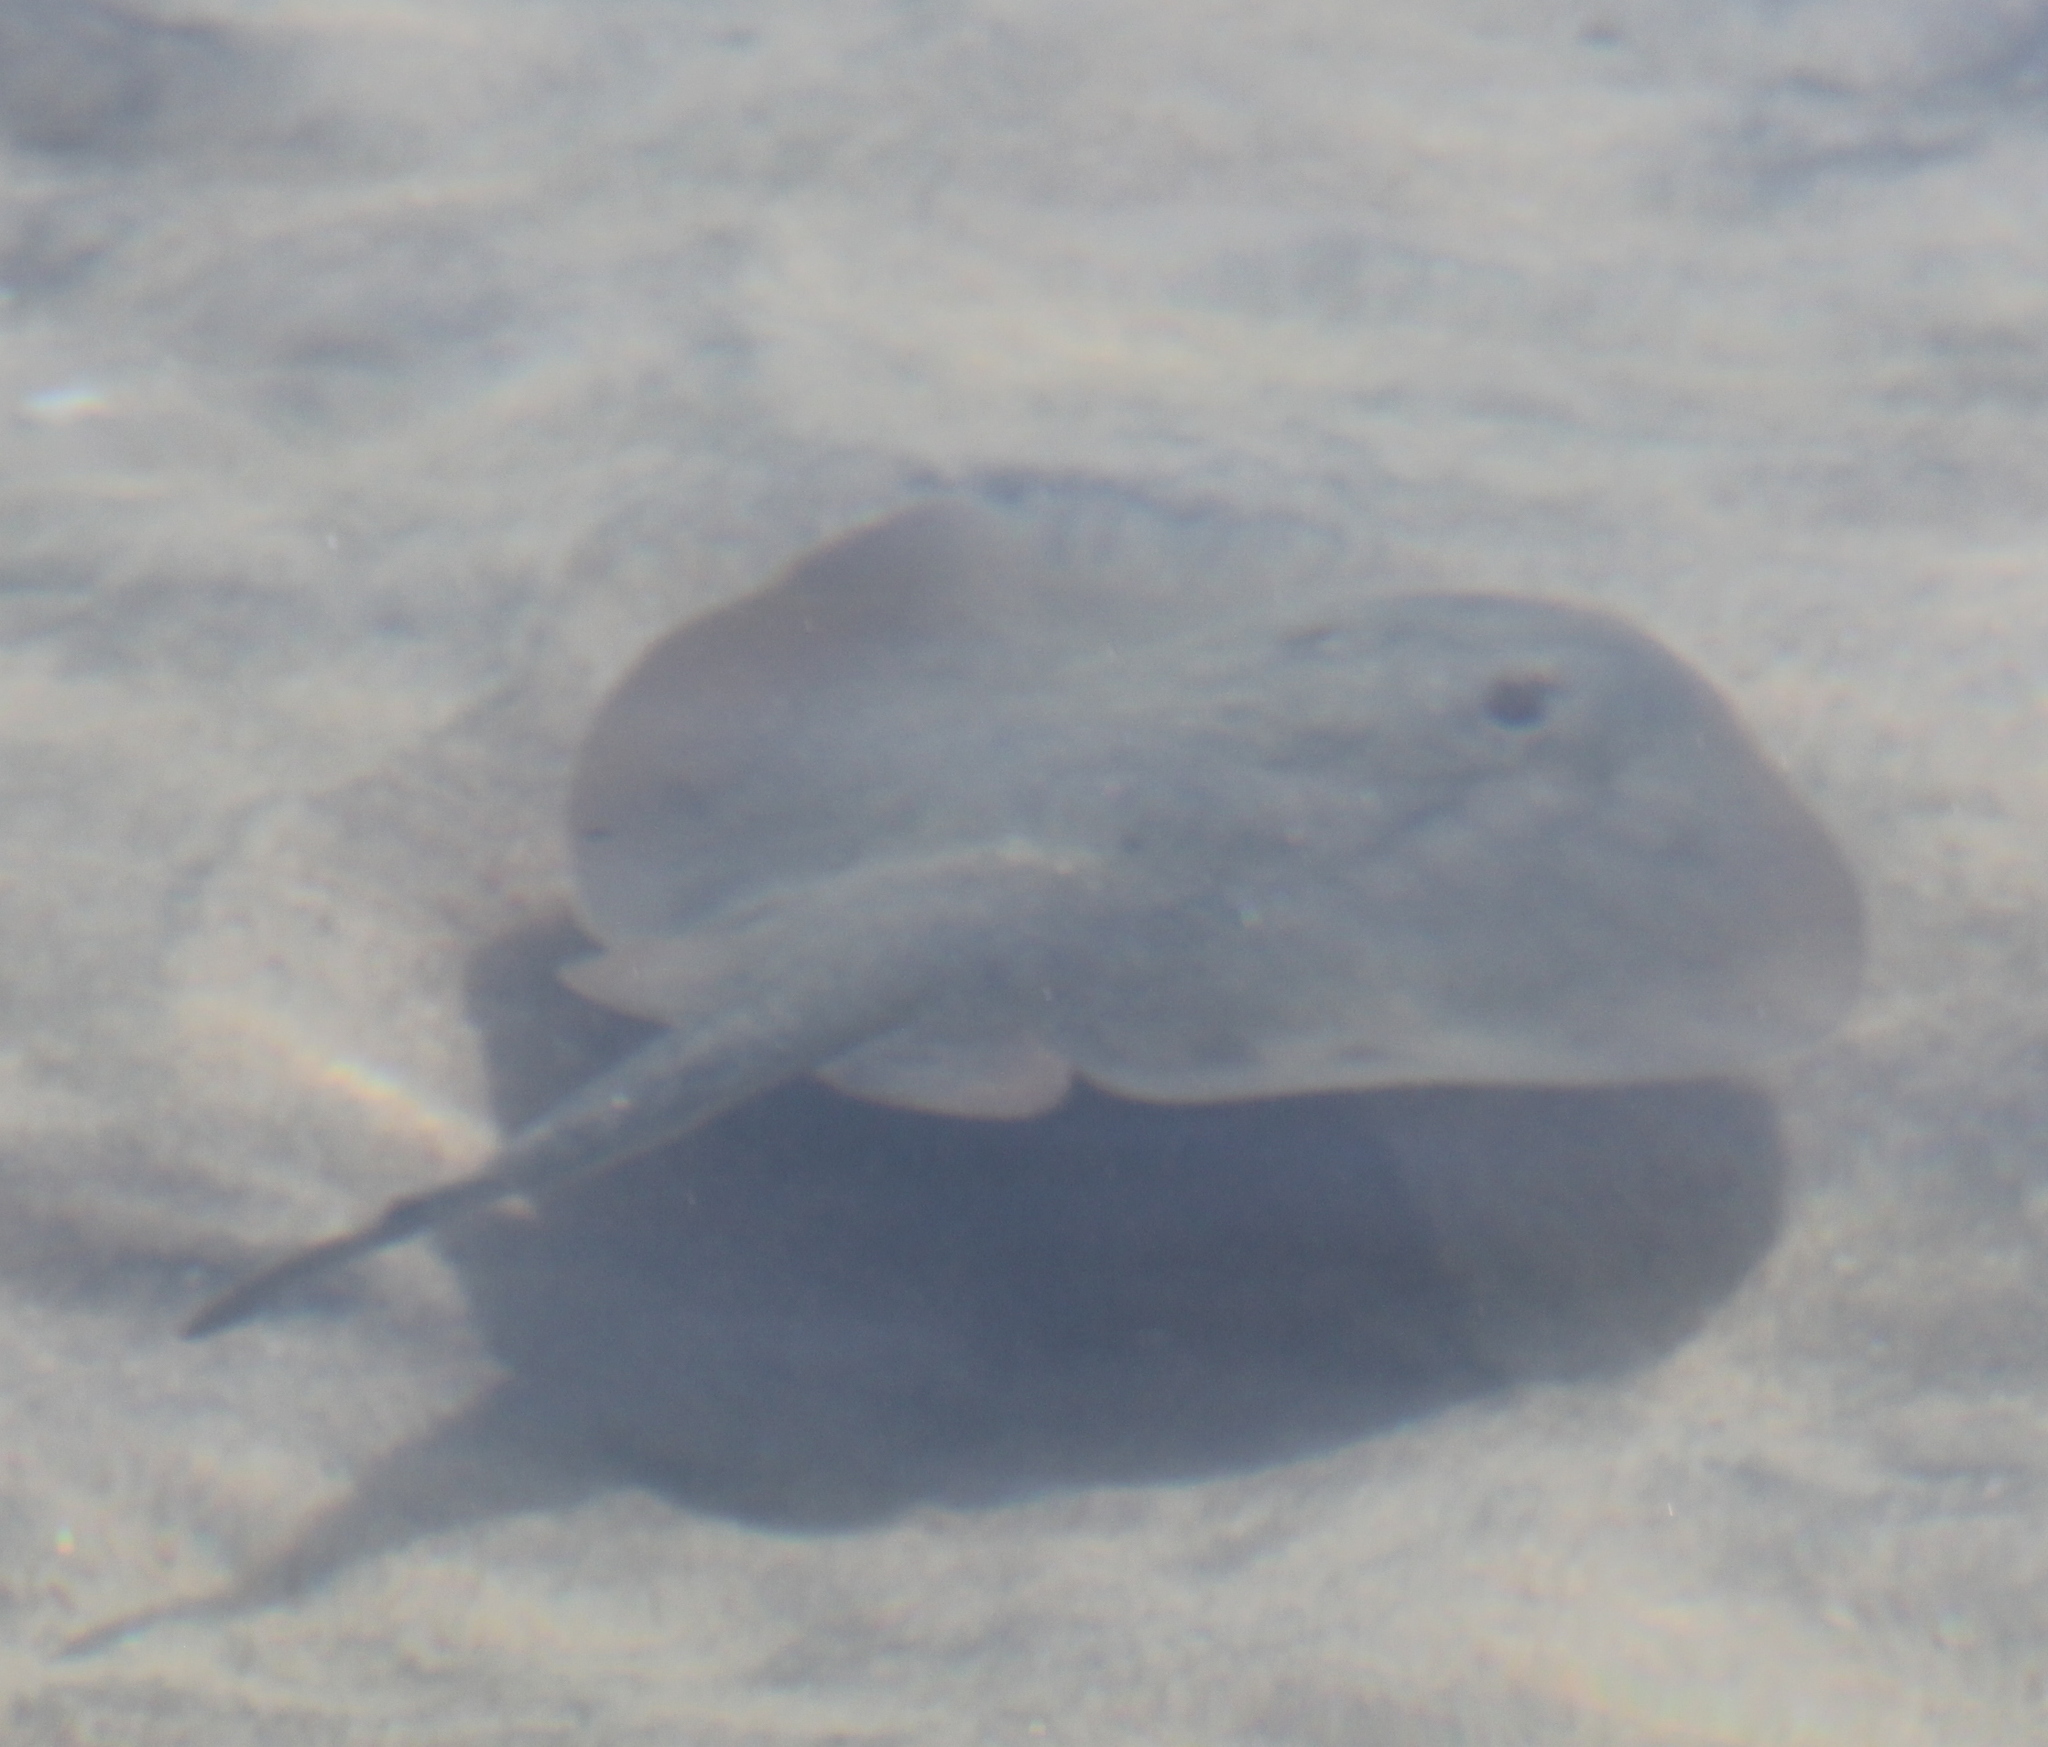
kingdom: Animalia
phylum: Chordata
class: Elasmobranchii
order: Myliobatiformes
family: Urolophidae
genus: Urolophus
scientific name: Urolophus halleri
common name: Round stingray
